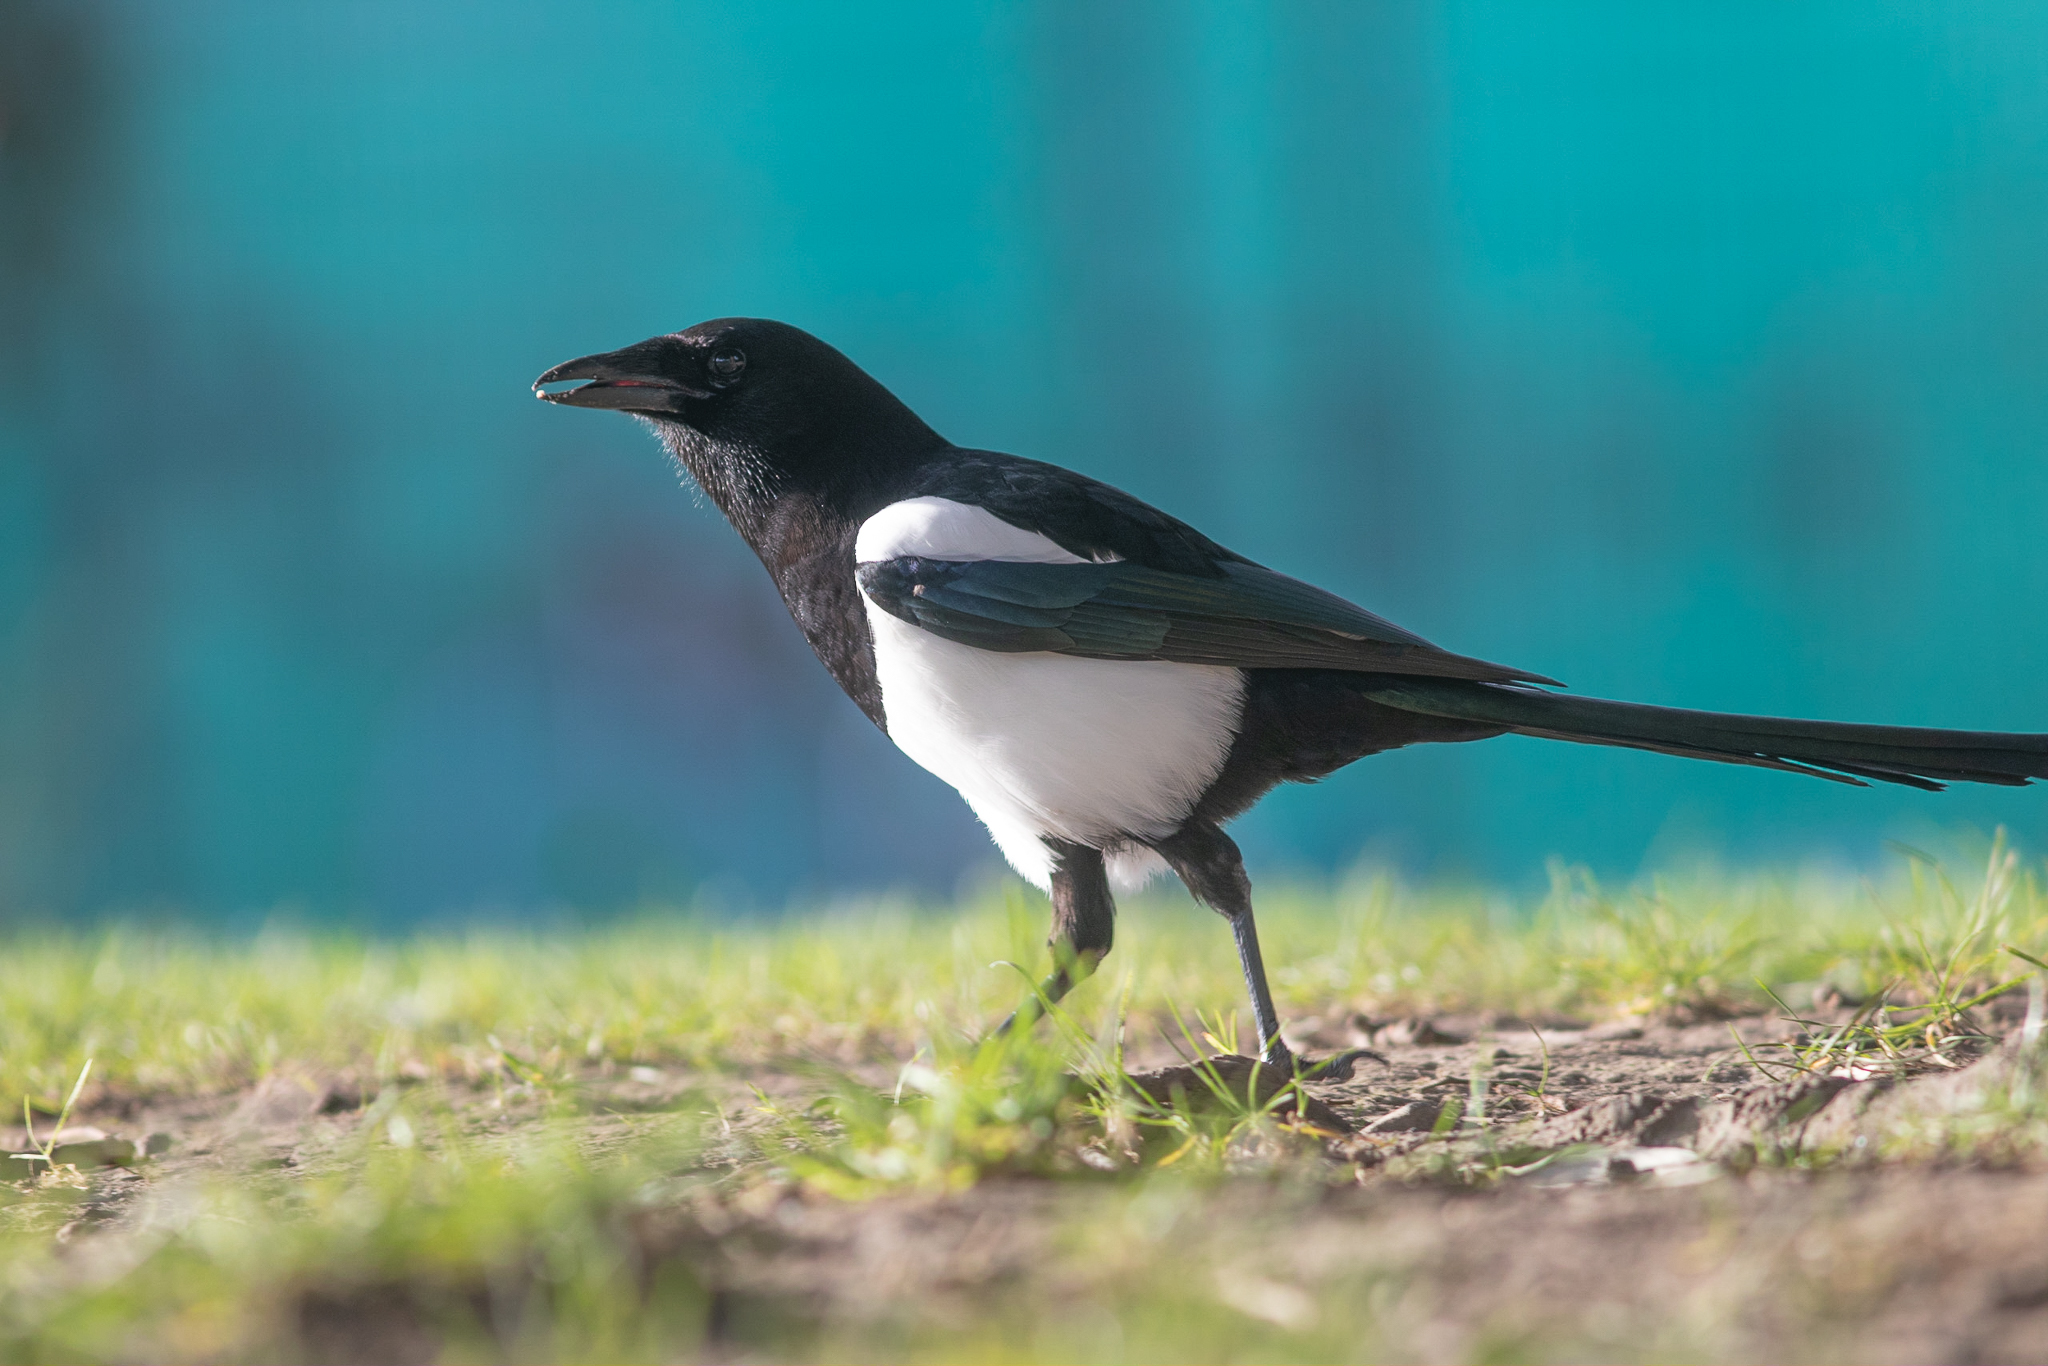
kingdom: Animalia
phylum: Chordata
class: Aves
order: Passeriformes
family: Corvidae
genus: Pica
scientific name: Pica pica
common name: Eurasian magpie
